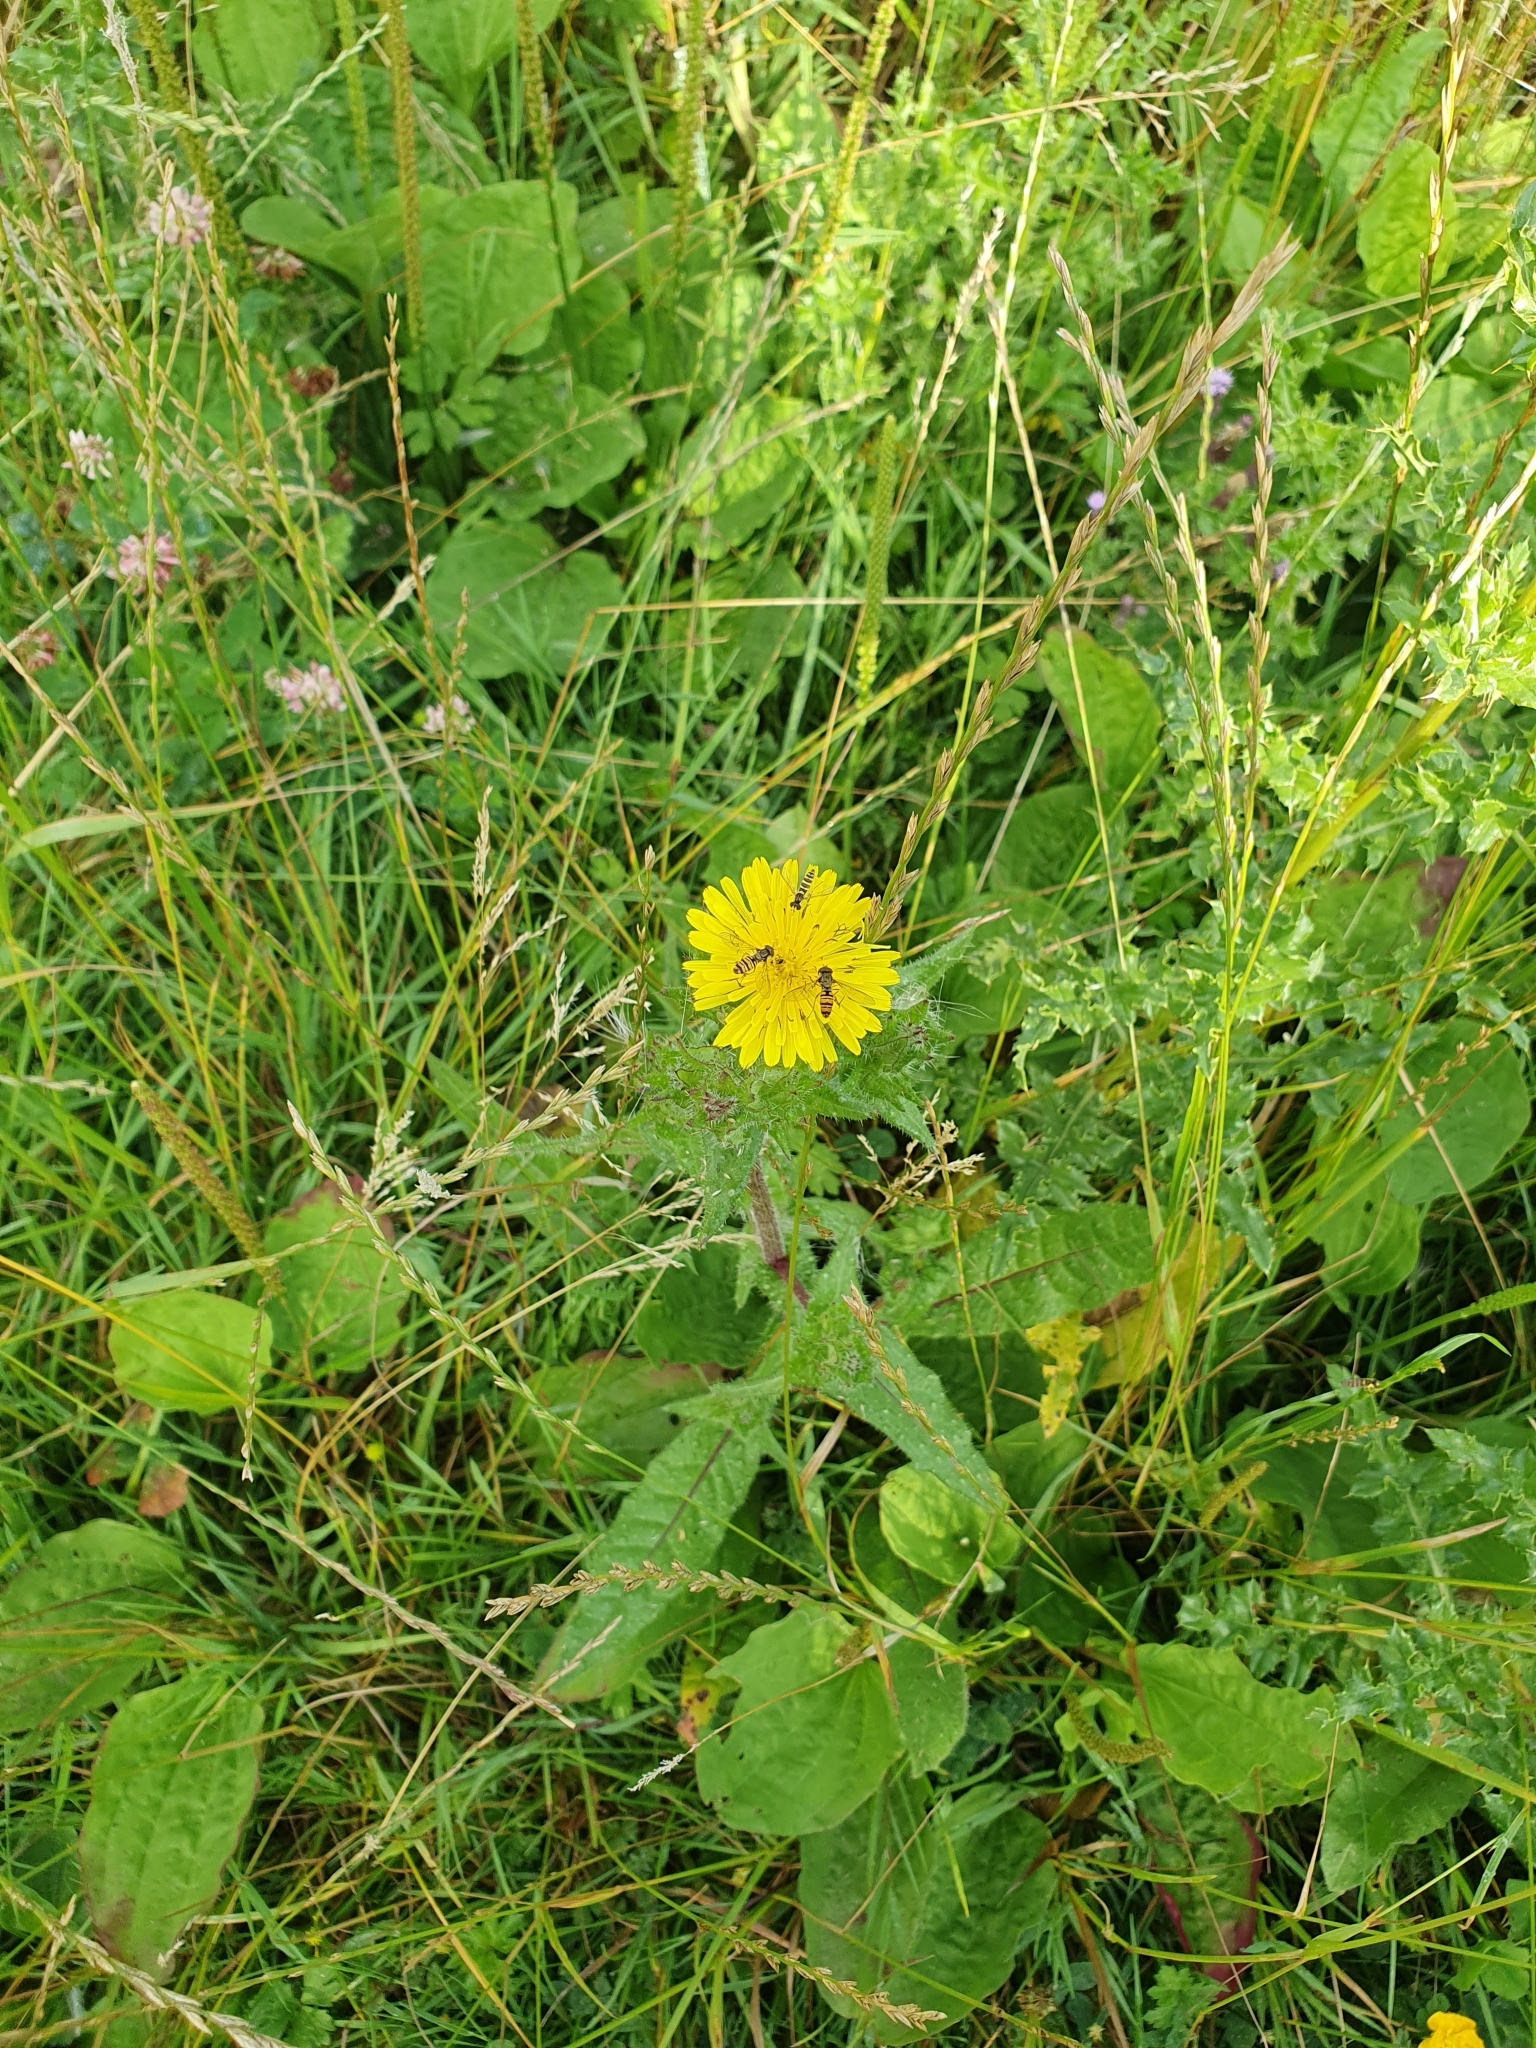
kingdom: Plantae
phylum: Tracheophyta
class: Magnoliopsida
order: Asterales
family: Asteraceae
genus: Helminthotheca
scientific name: Helminthotheca echioides
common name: Ox-tongue
